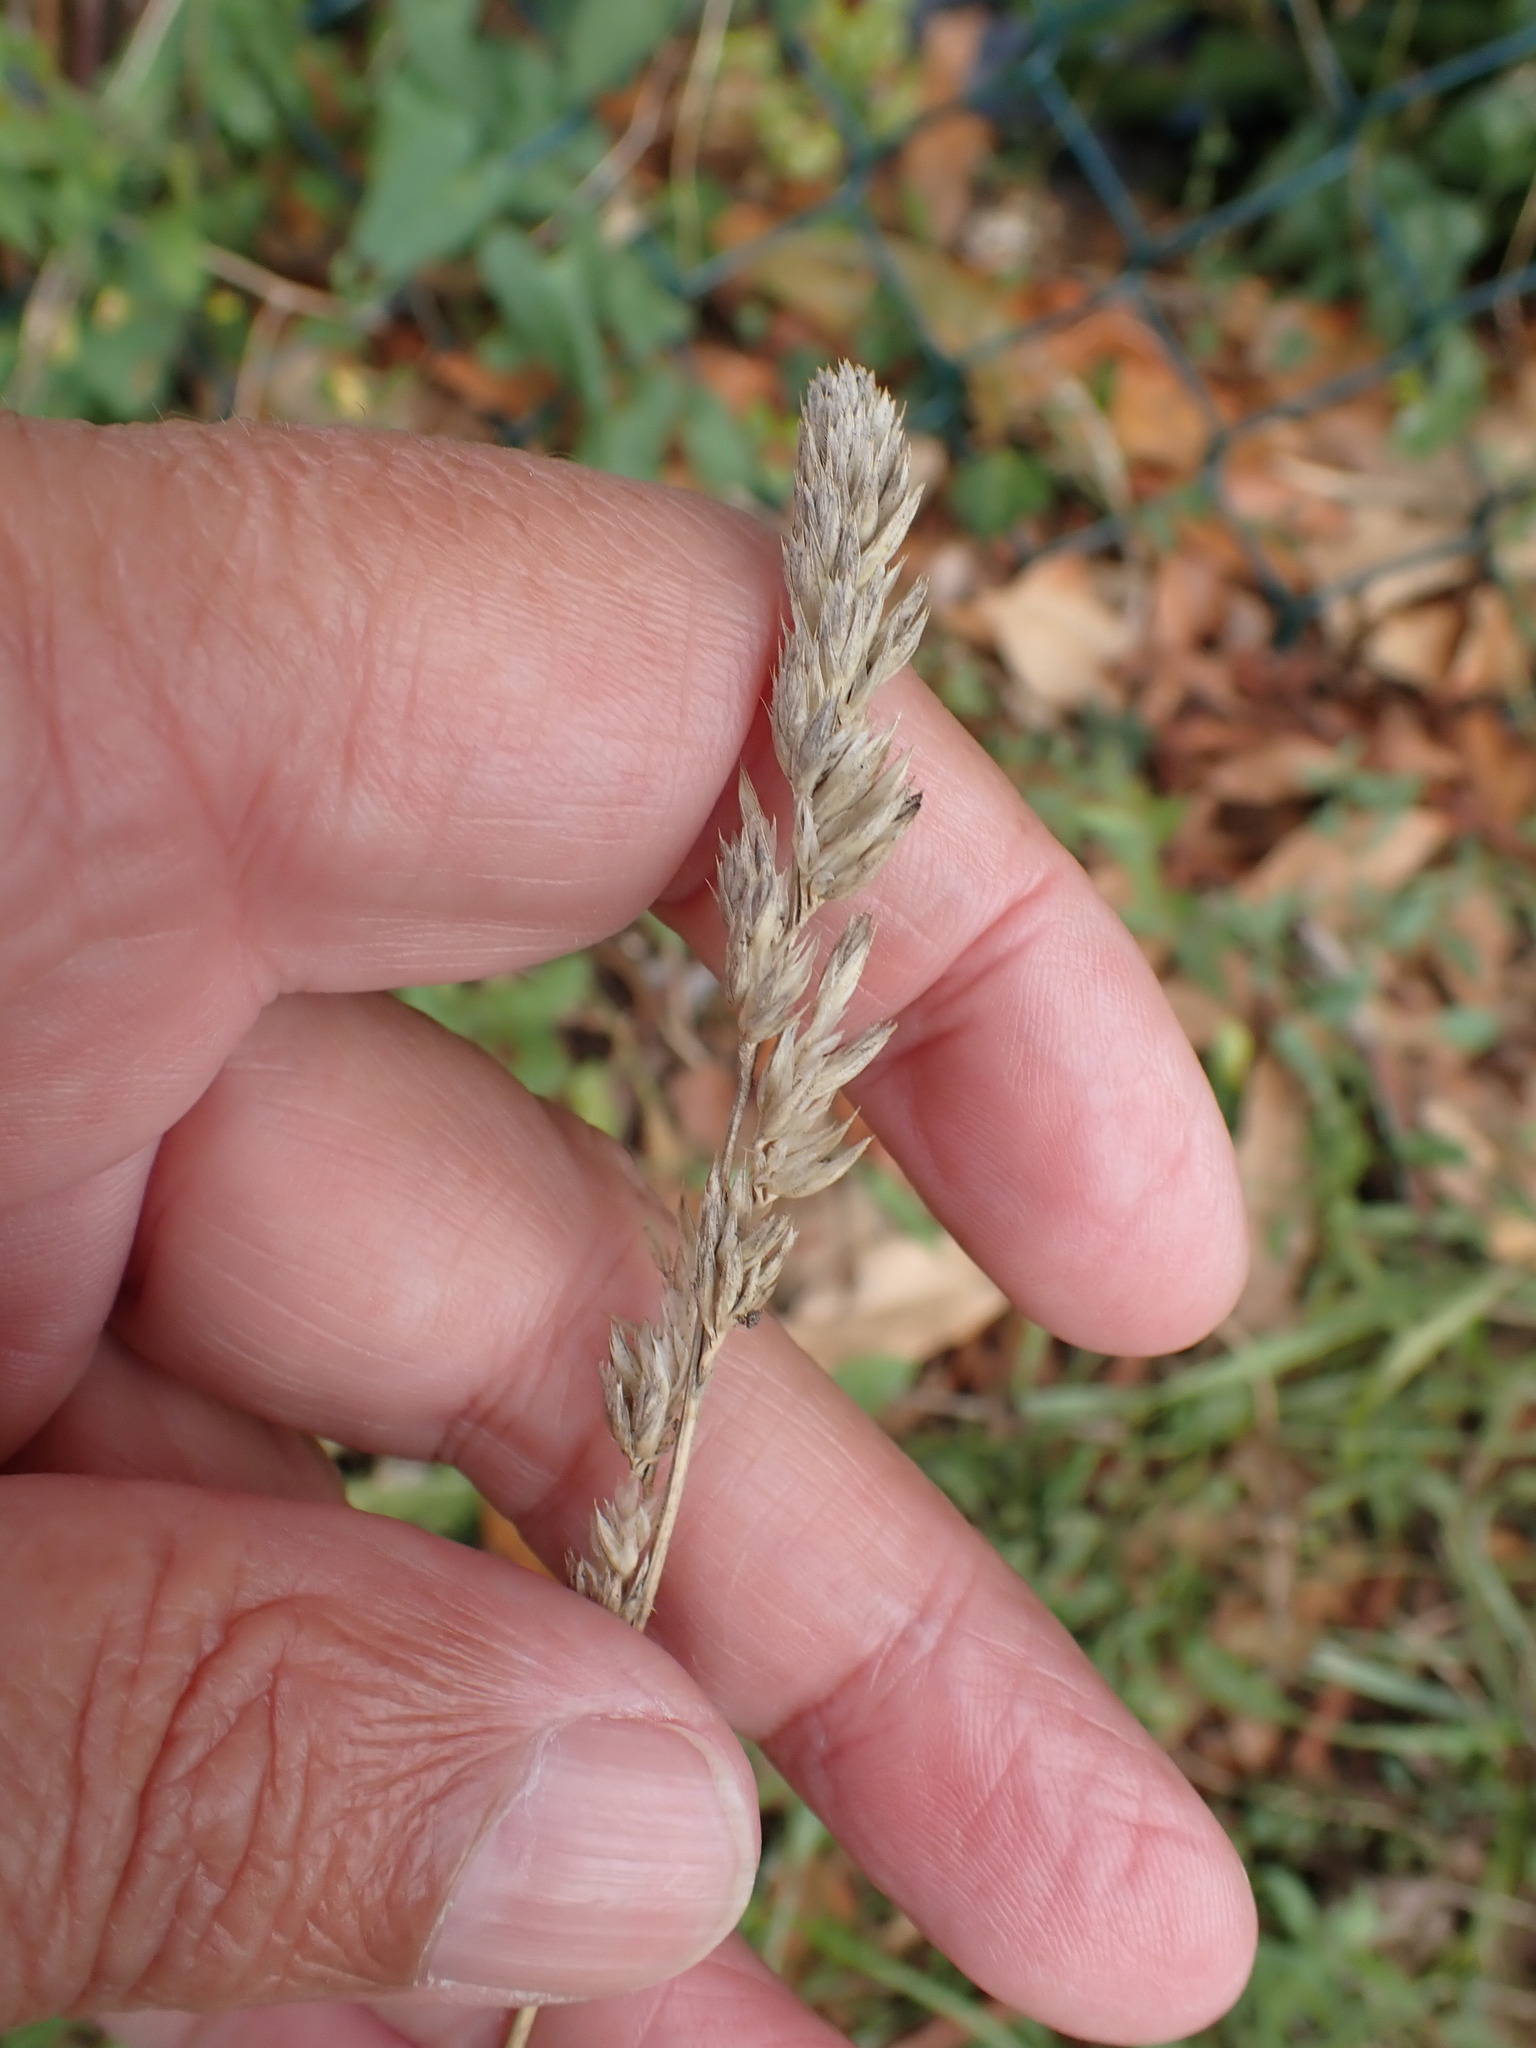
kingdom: Plantae
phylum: Tracheophyta
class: Liliopsida
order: Poales
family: Poaceae
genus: Dactylis
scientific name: Dactylis glomerata
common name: Orchardgrass
